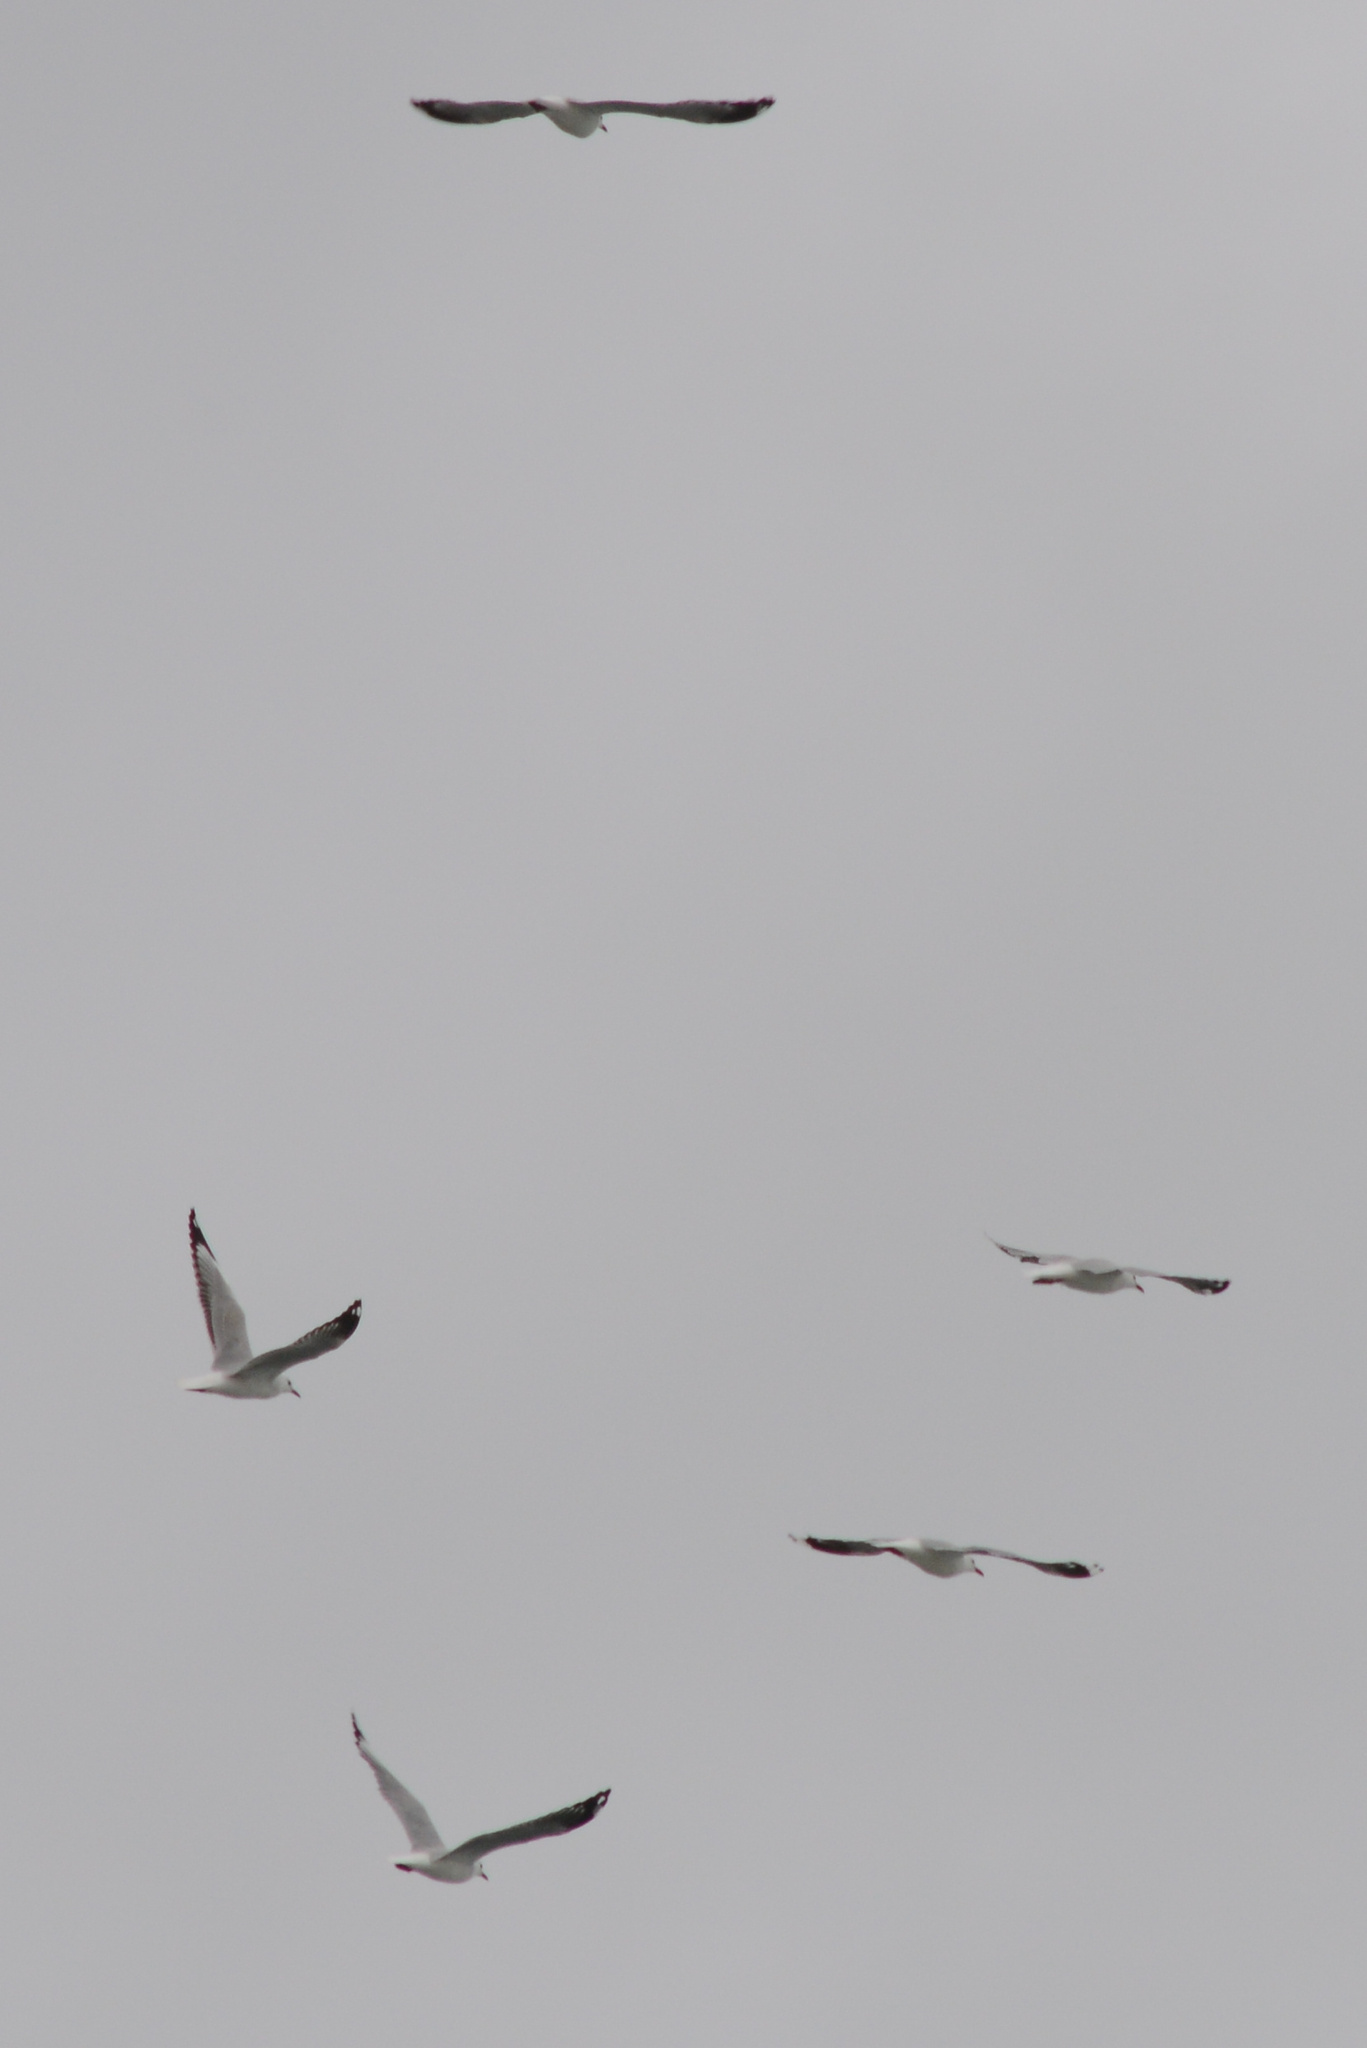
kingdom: Animalia
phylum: Chordata
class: Aves
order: Charadriiformes
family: Laridae
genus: Chroicocephalus
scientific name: Chroicocephalus novaehollandiae
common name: Silver gull
